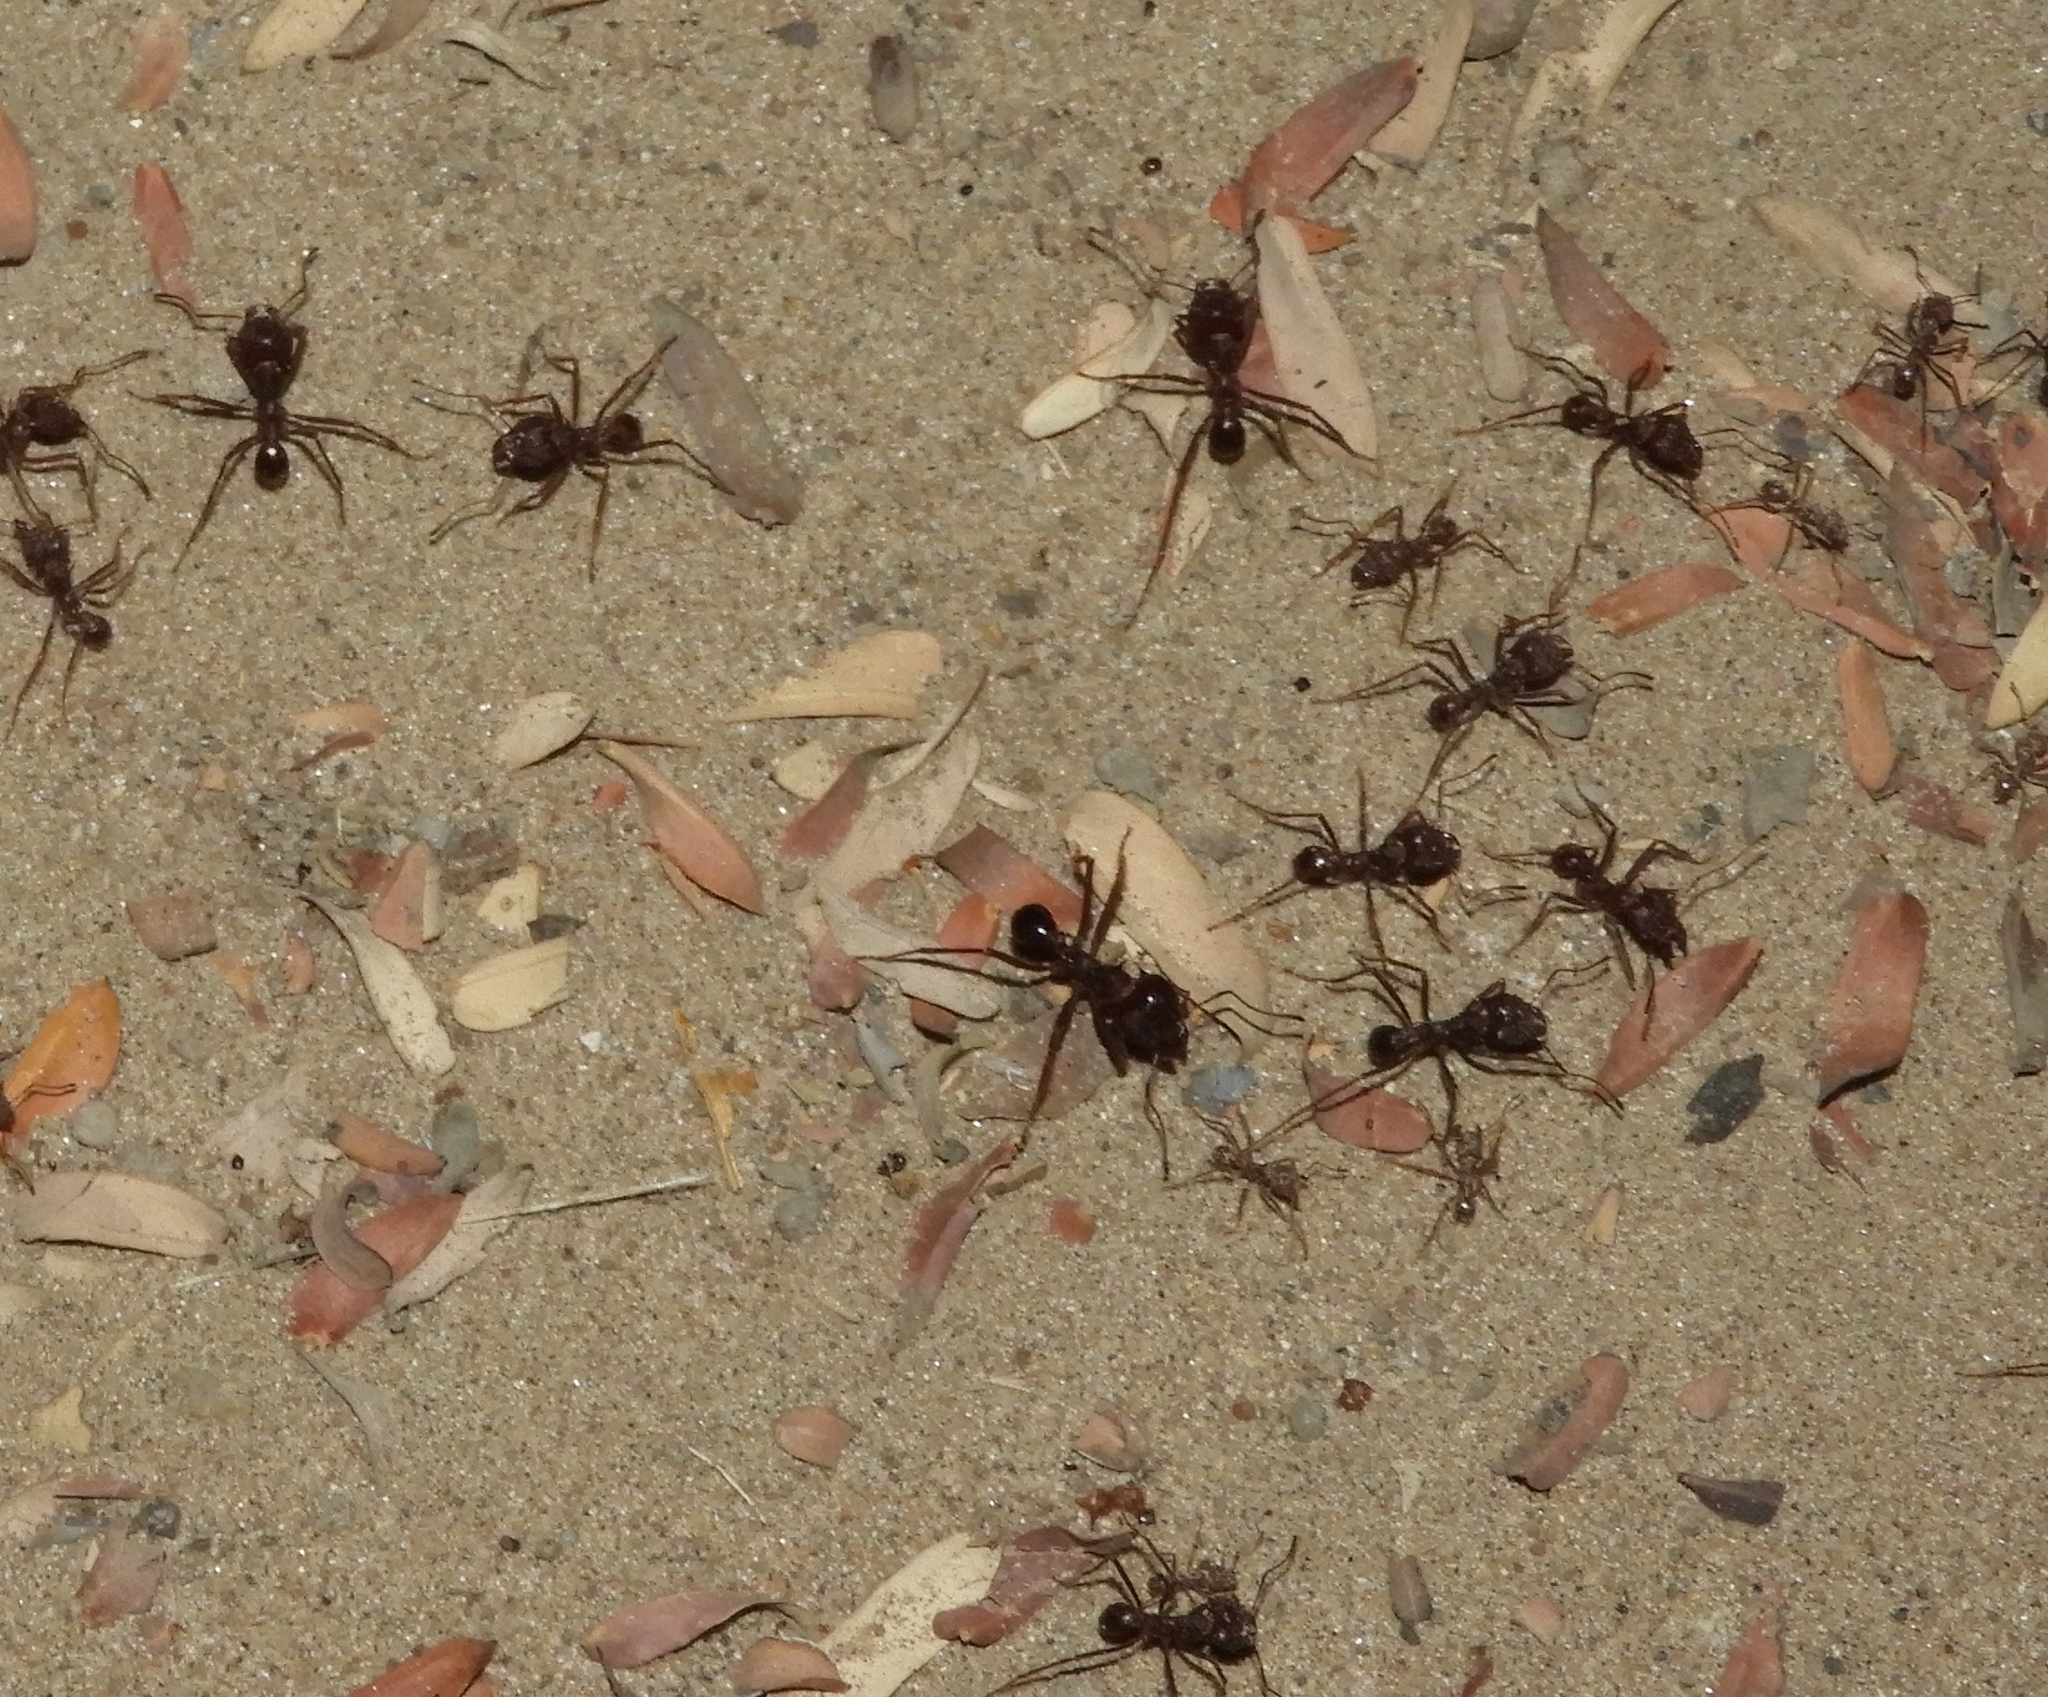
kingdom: Animalia
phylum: Arthropoda
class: Insecta
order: Hymenoptera
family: Formicidae
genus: Atta
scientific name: Atta mexicana
